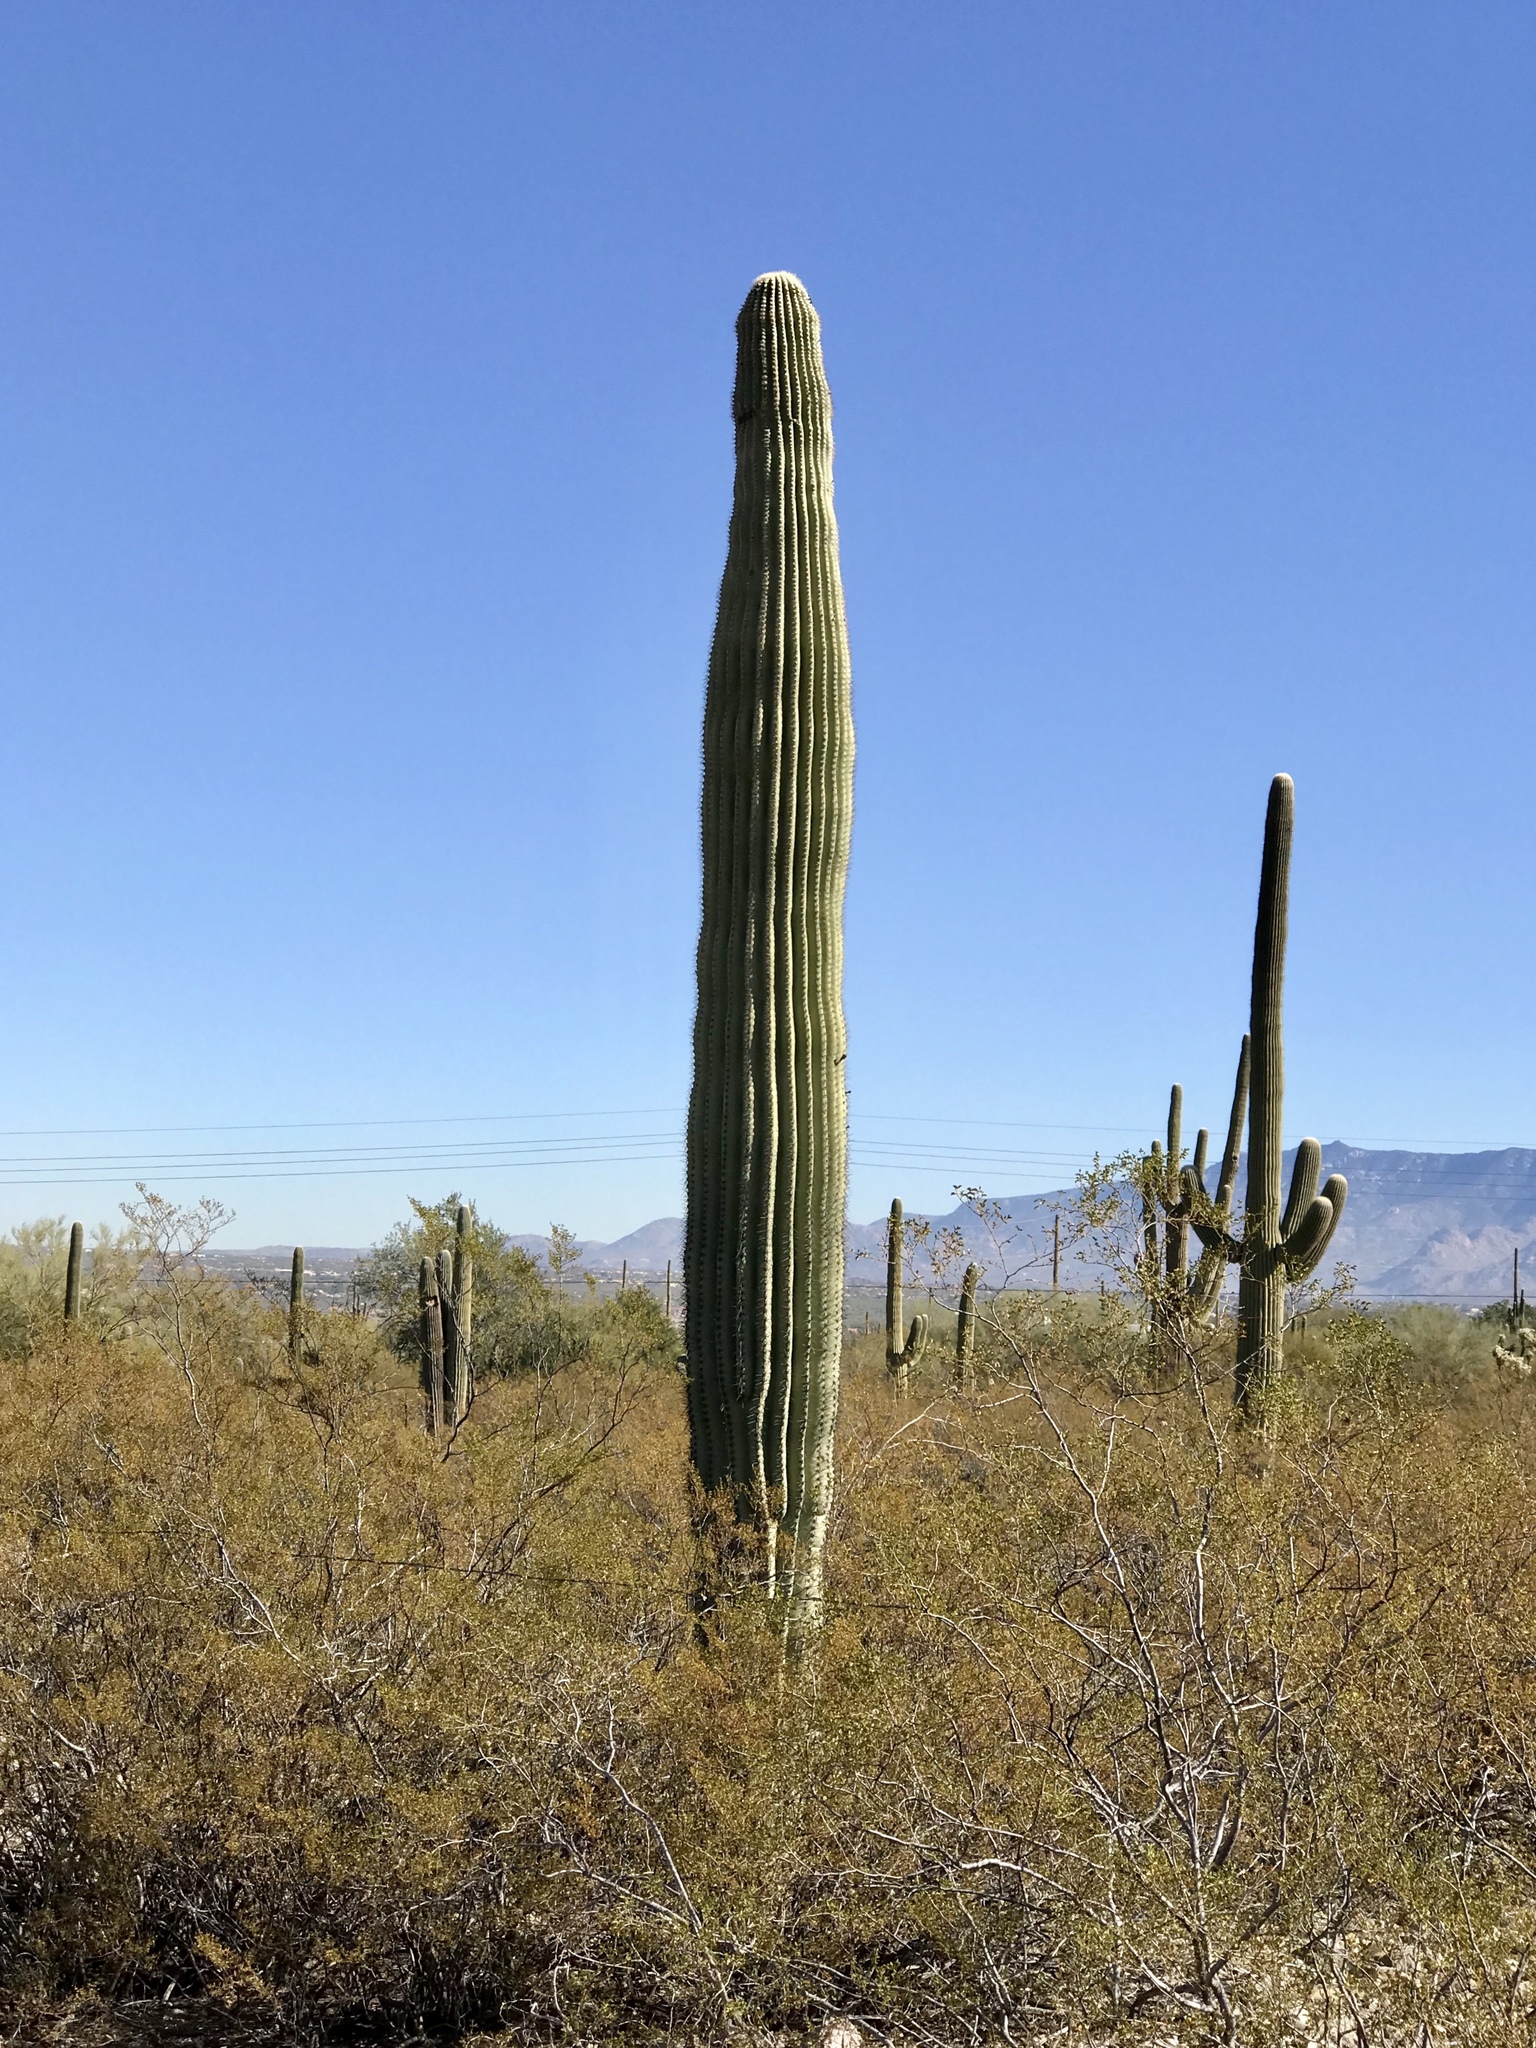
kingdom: Plantae
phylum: Tracheophyta
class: Magnoliopsida
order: Caryophyllales
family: Cactaceae
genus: Carnegiea
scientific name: Carnegiea gigantea
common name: Saguaro
